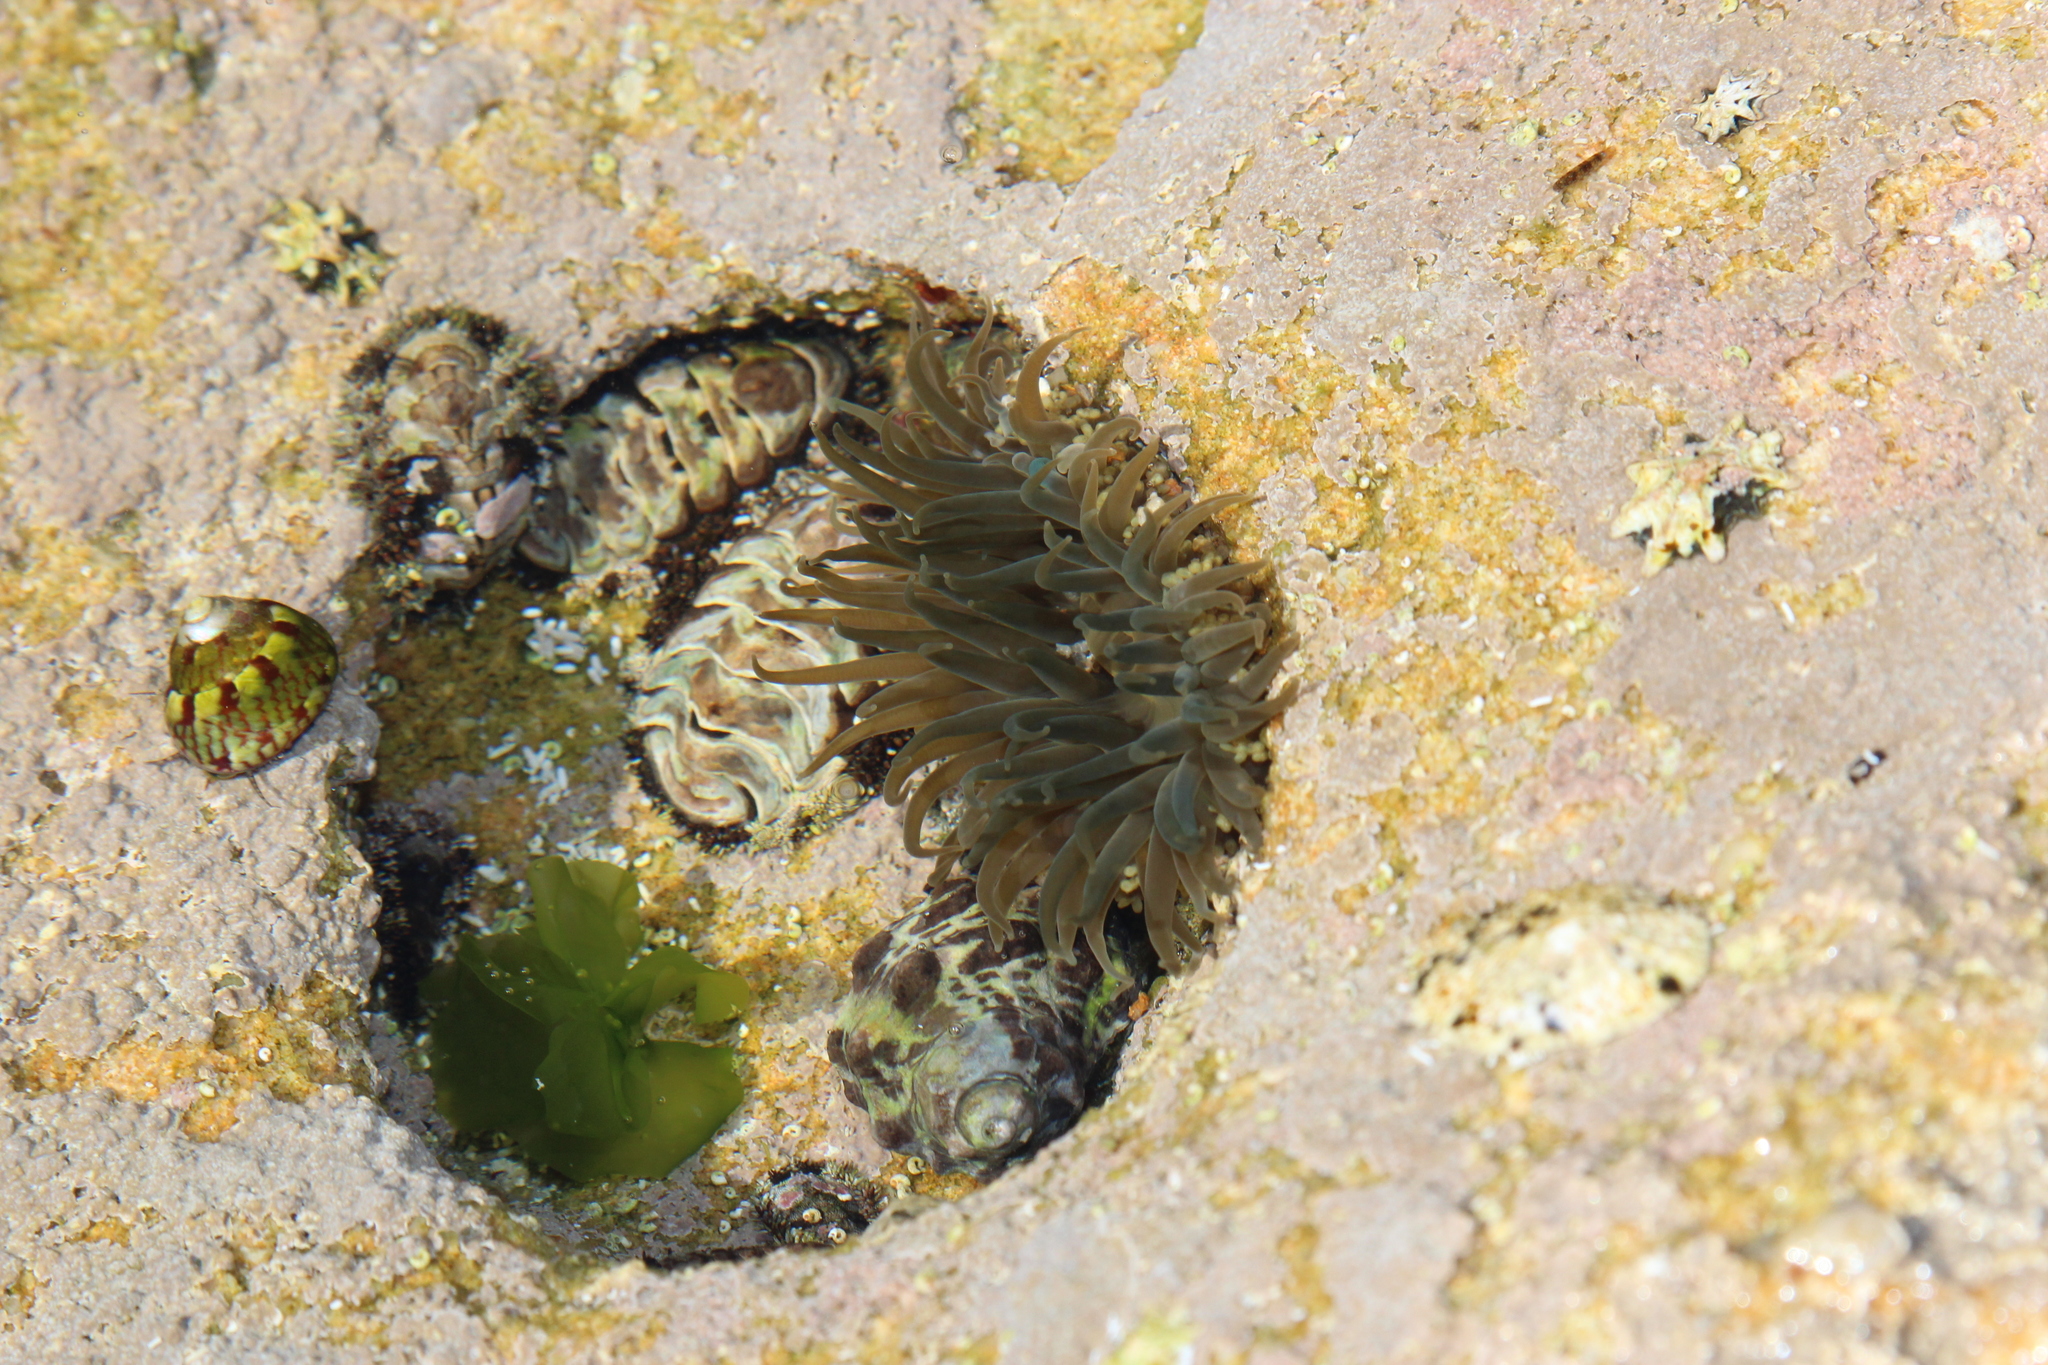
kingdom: Animalia
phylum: Mollusca
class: Polyplacophora
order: Chitonida
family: Chitonidae
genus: Liolophura
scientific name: Liolophura japonica
